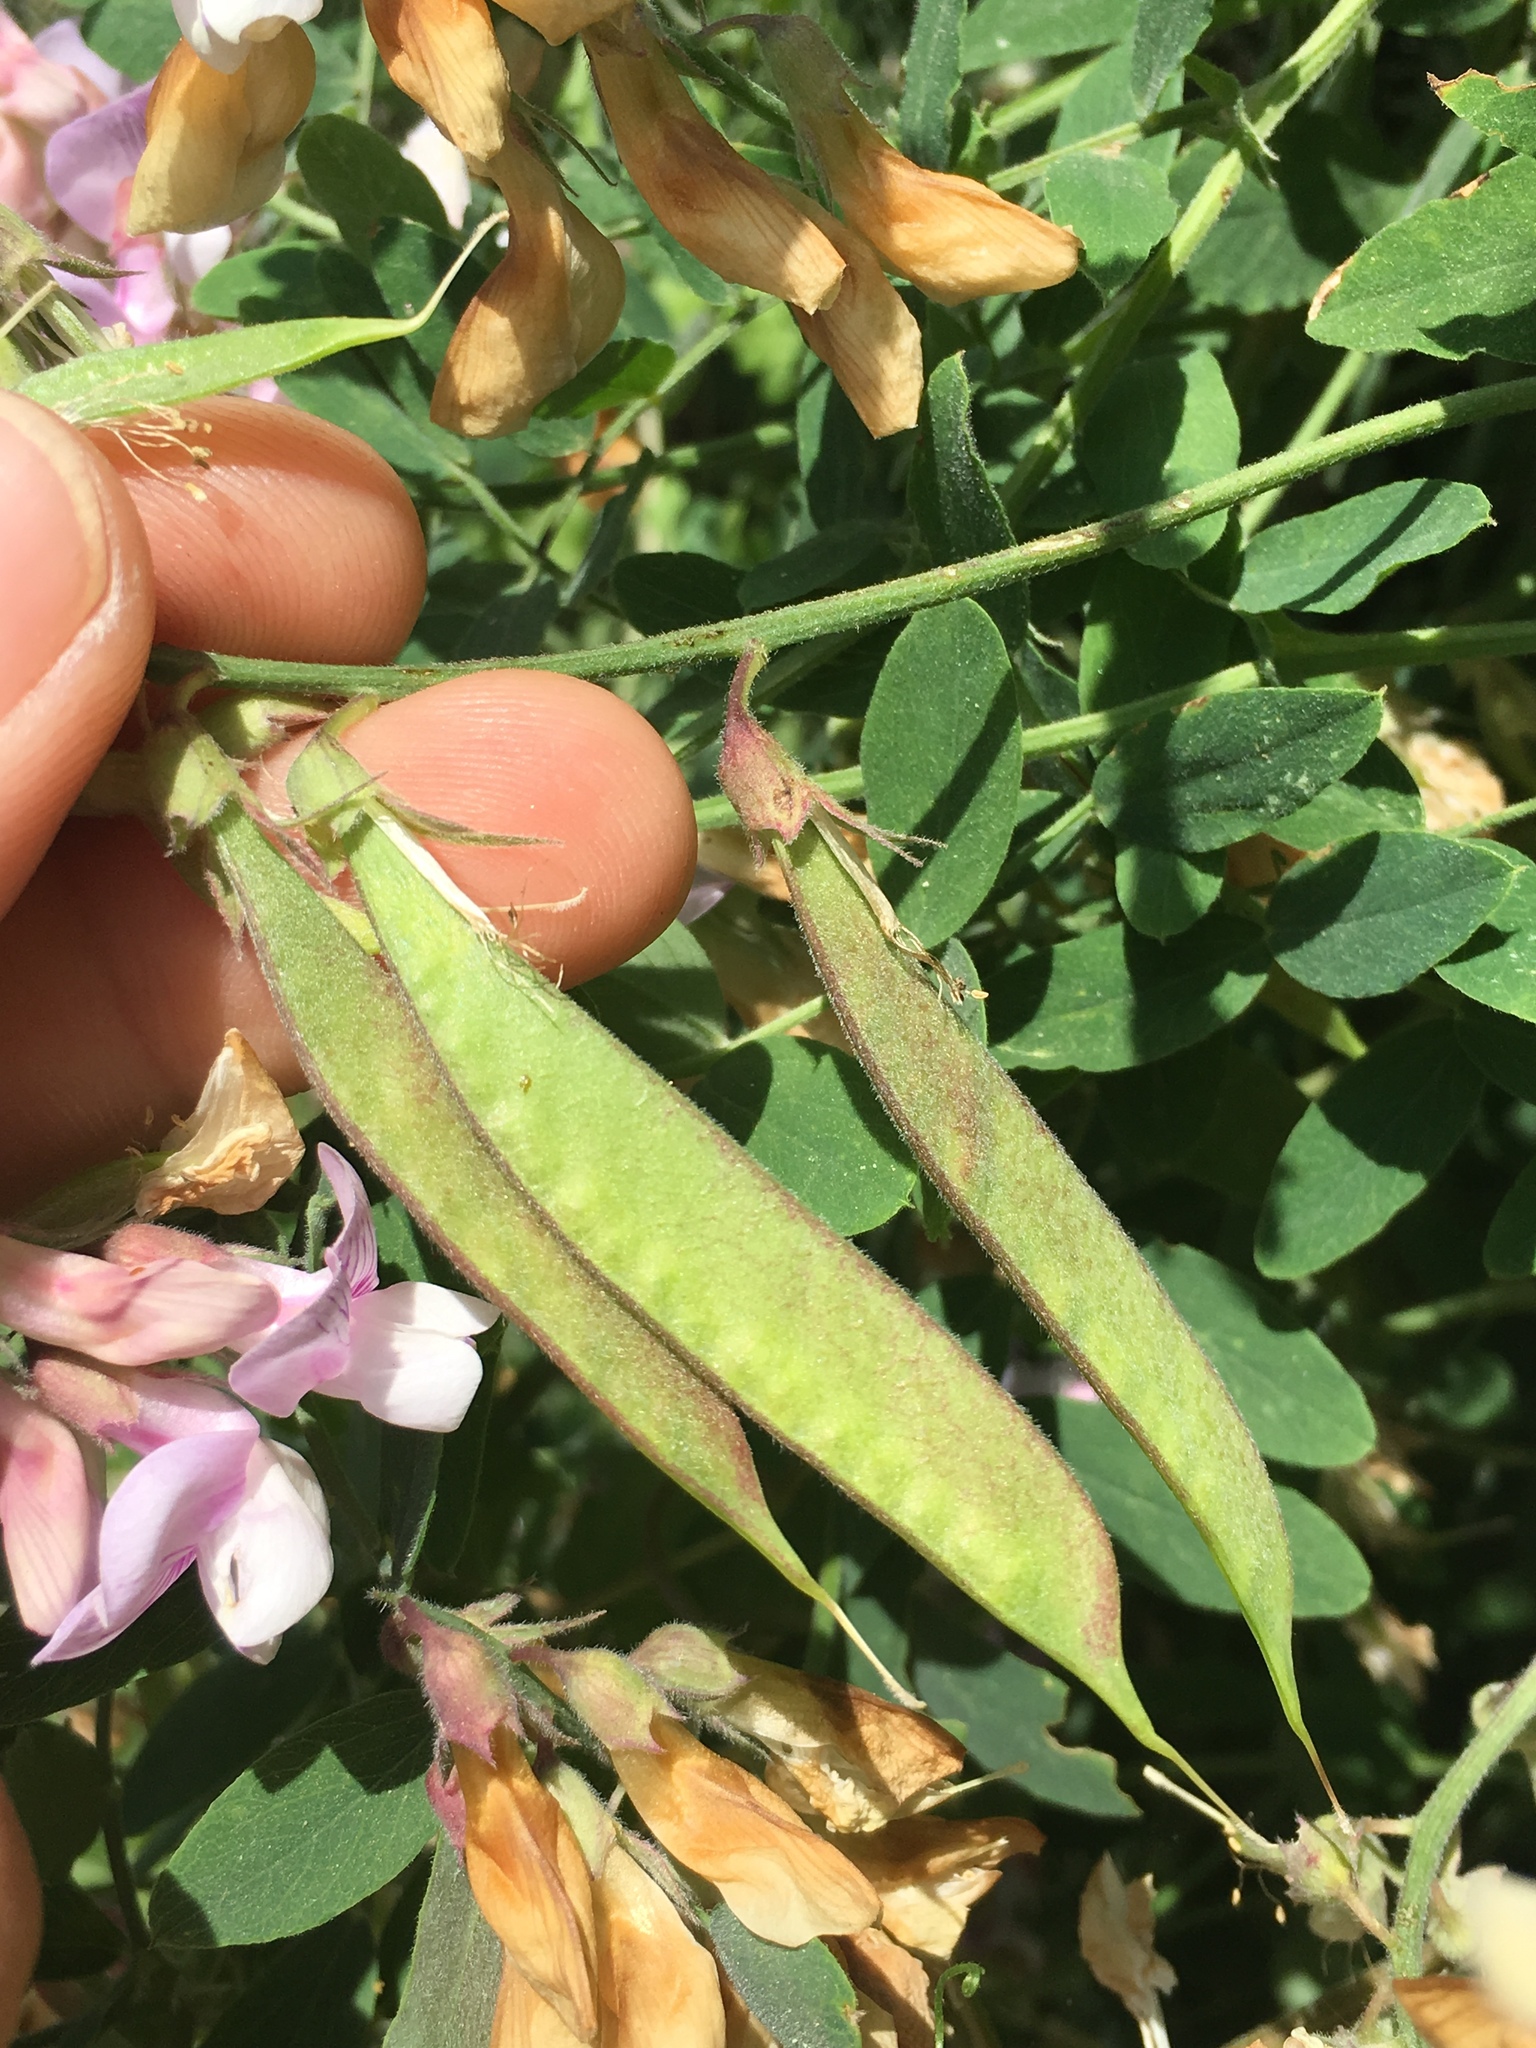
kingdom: Plantae
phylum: Tracheophyta
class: Magnoliopsida
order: Fabales
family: Fabaceae
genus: Lathyrus
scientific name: Lathyrus vestitus
